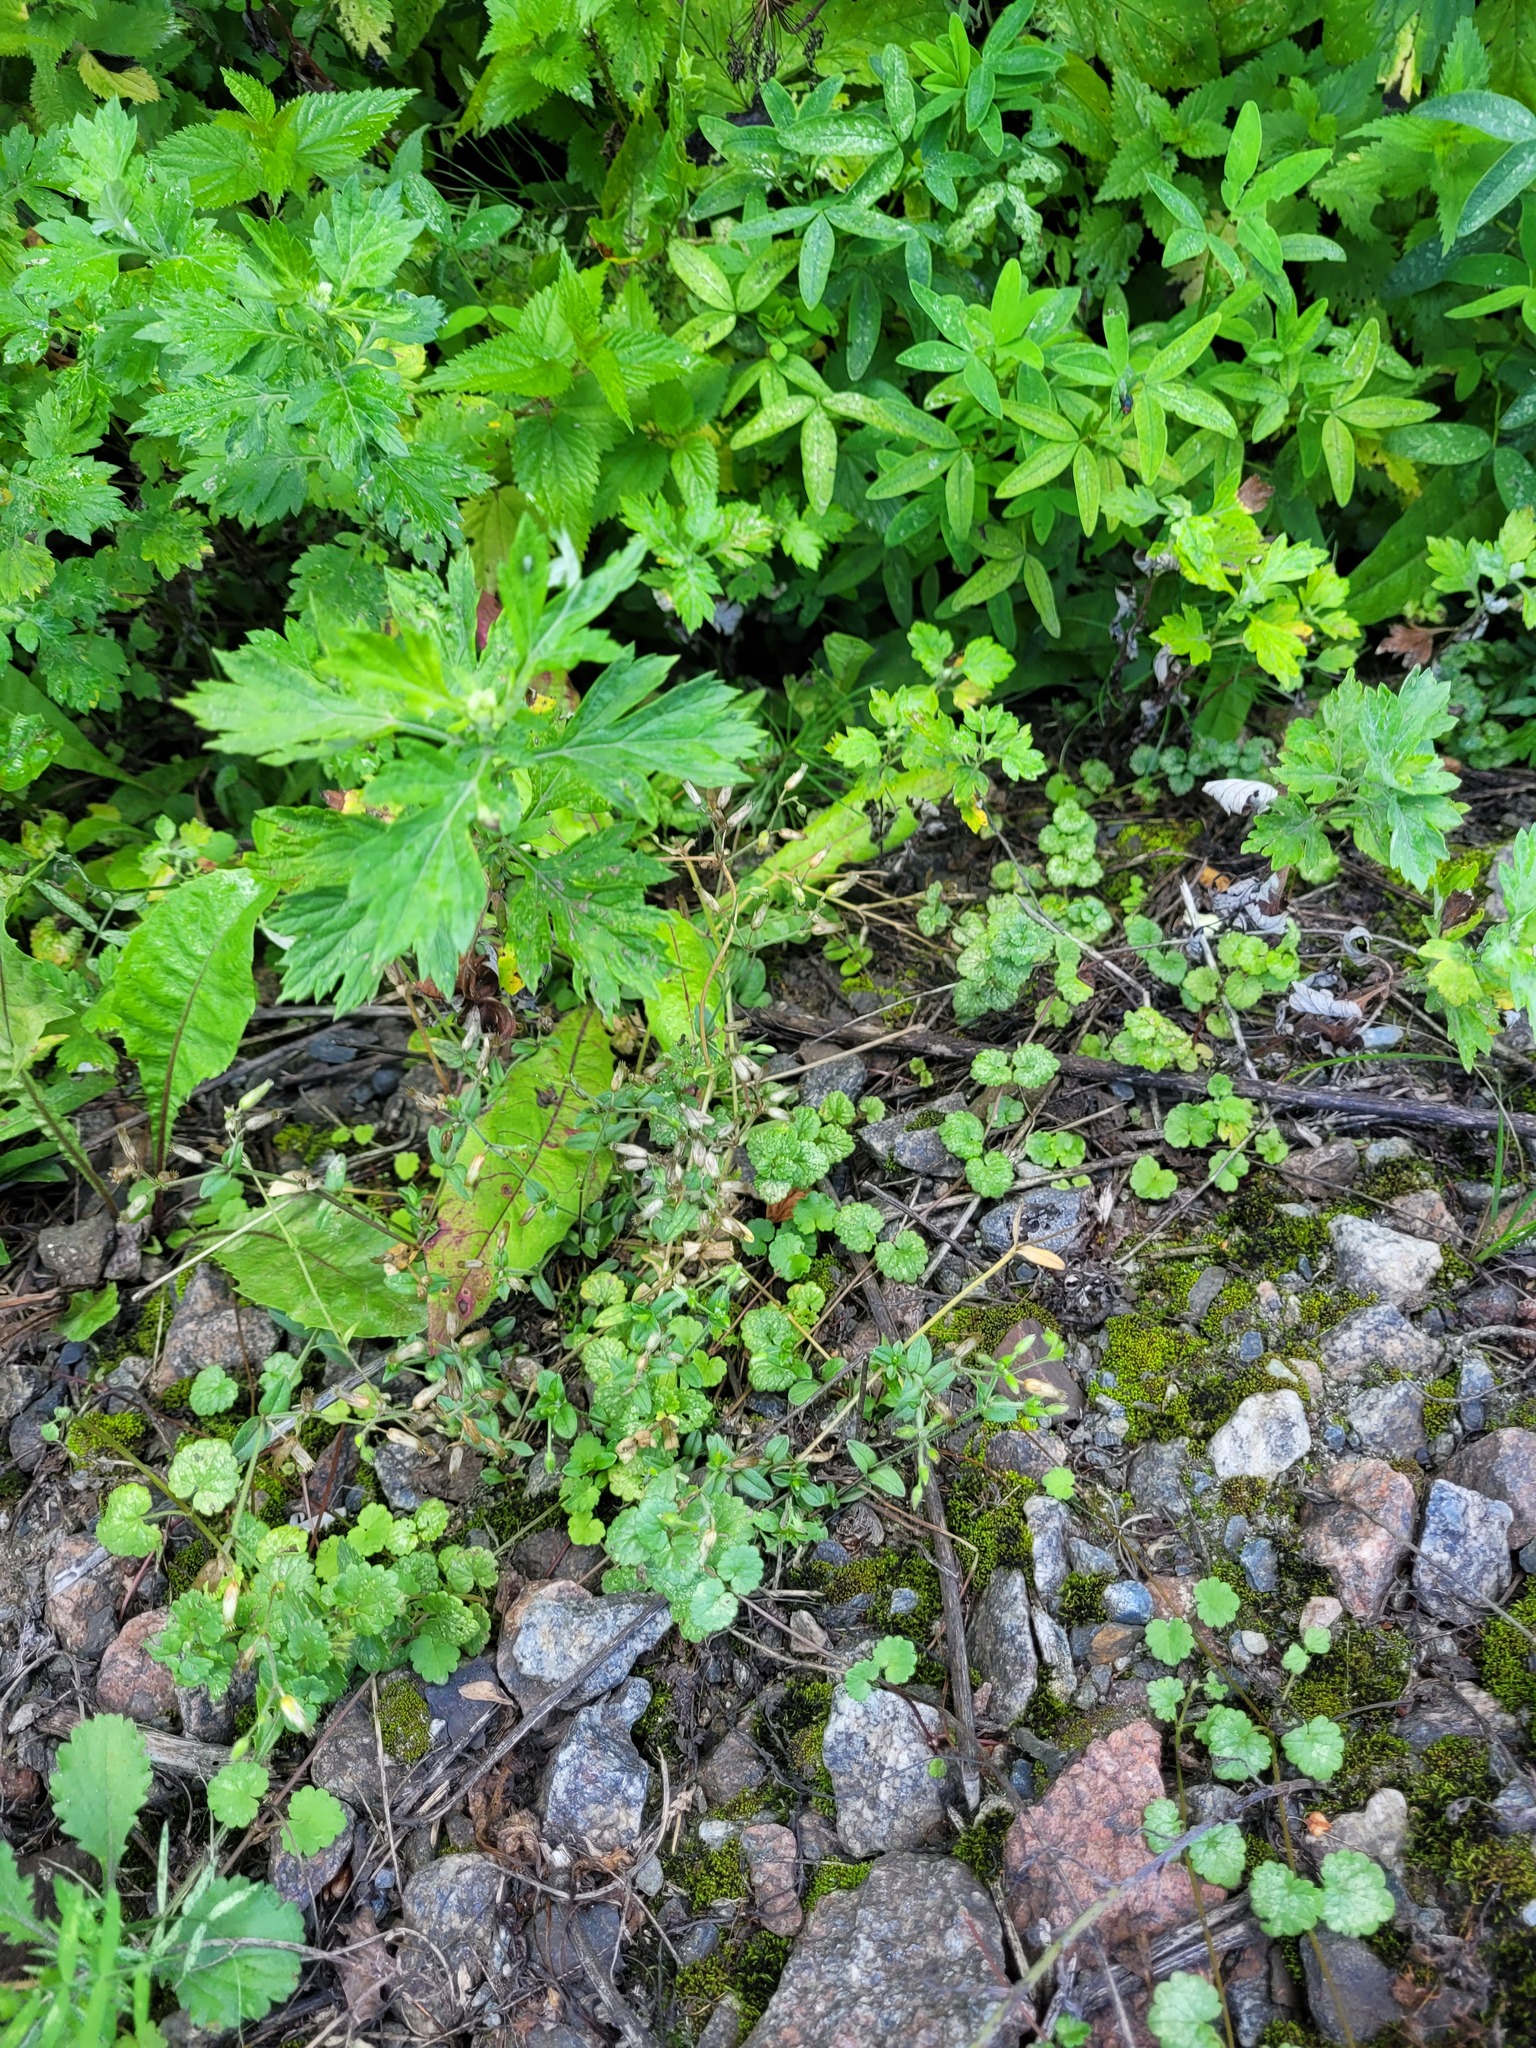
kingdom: Plantae
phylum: Tracheophyta
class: Magnoliopsida
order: Caryophyllales
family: Caryophyllaceae
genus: Cerastium
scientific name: Cerastium holosteoides
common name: Big chickweed
